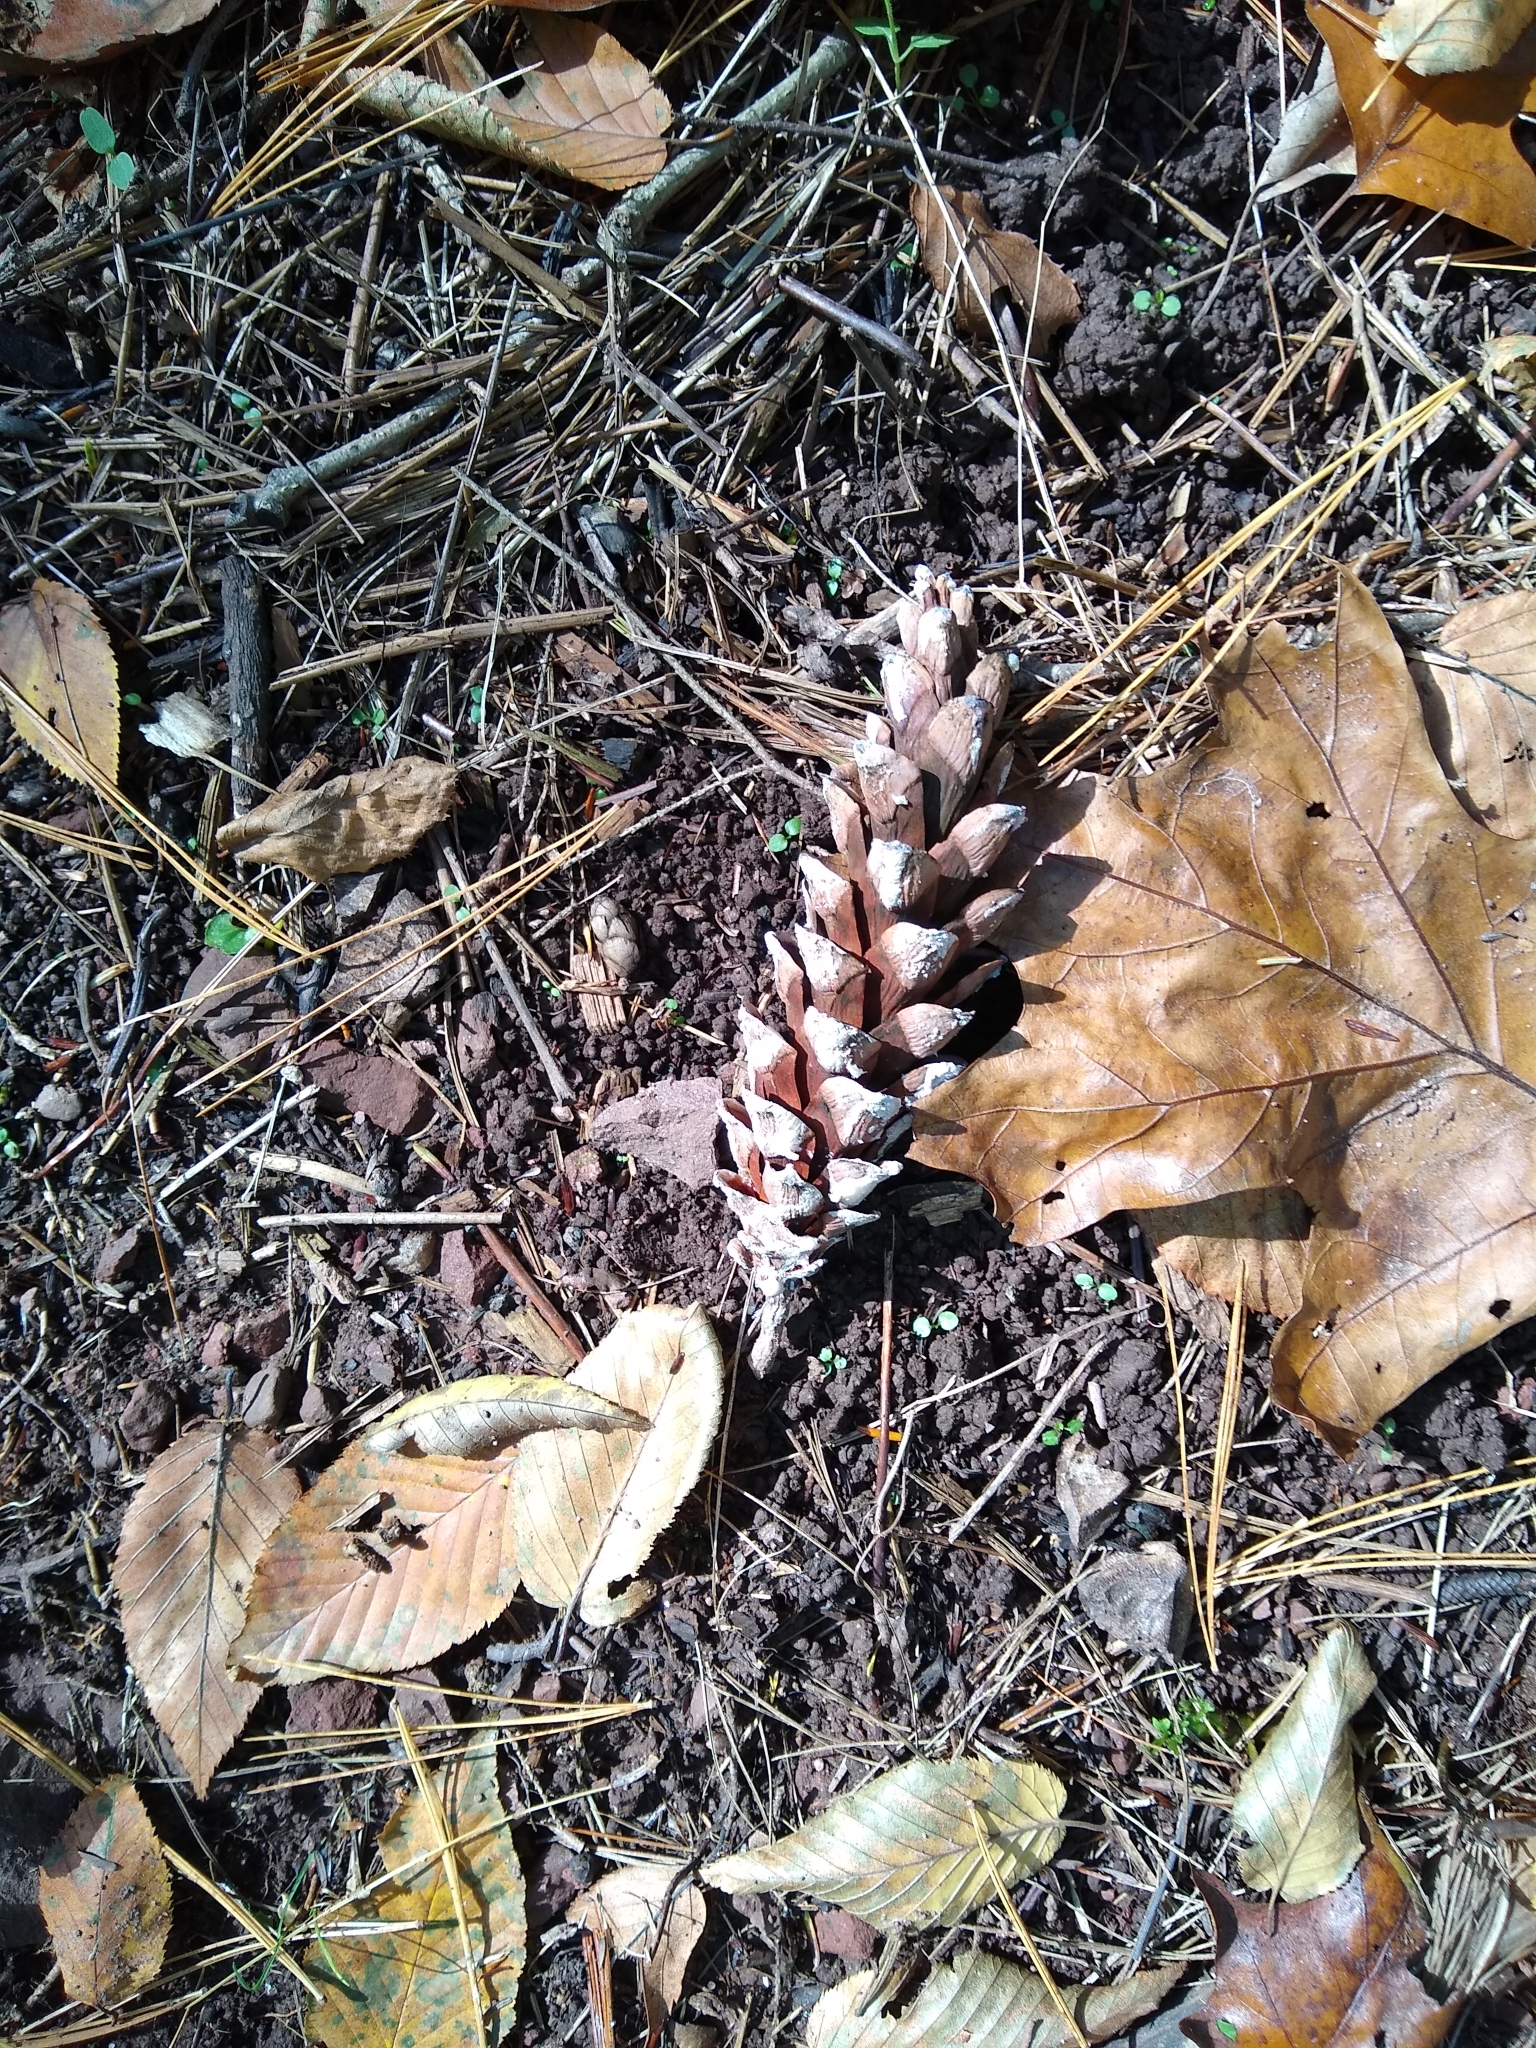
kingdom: Plantae
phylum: Tracheophyta
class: Pinopsida
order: Pinales
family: Pinaceae
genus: Pinus
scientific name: Pinus strobus
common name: Weymouth pine
